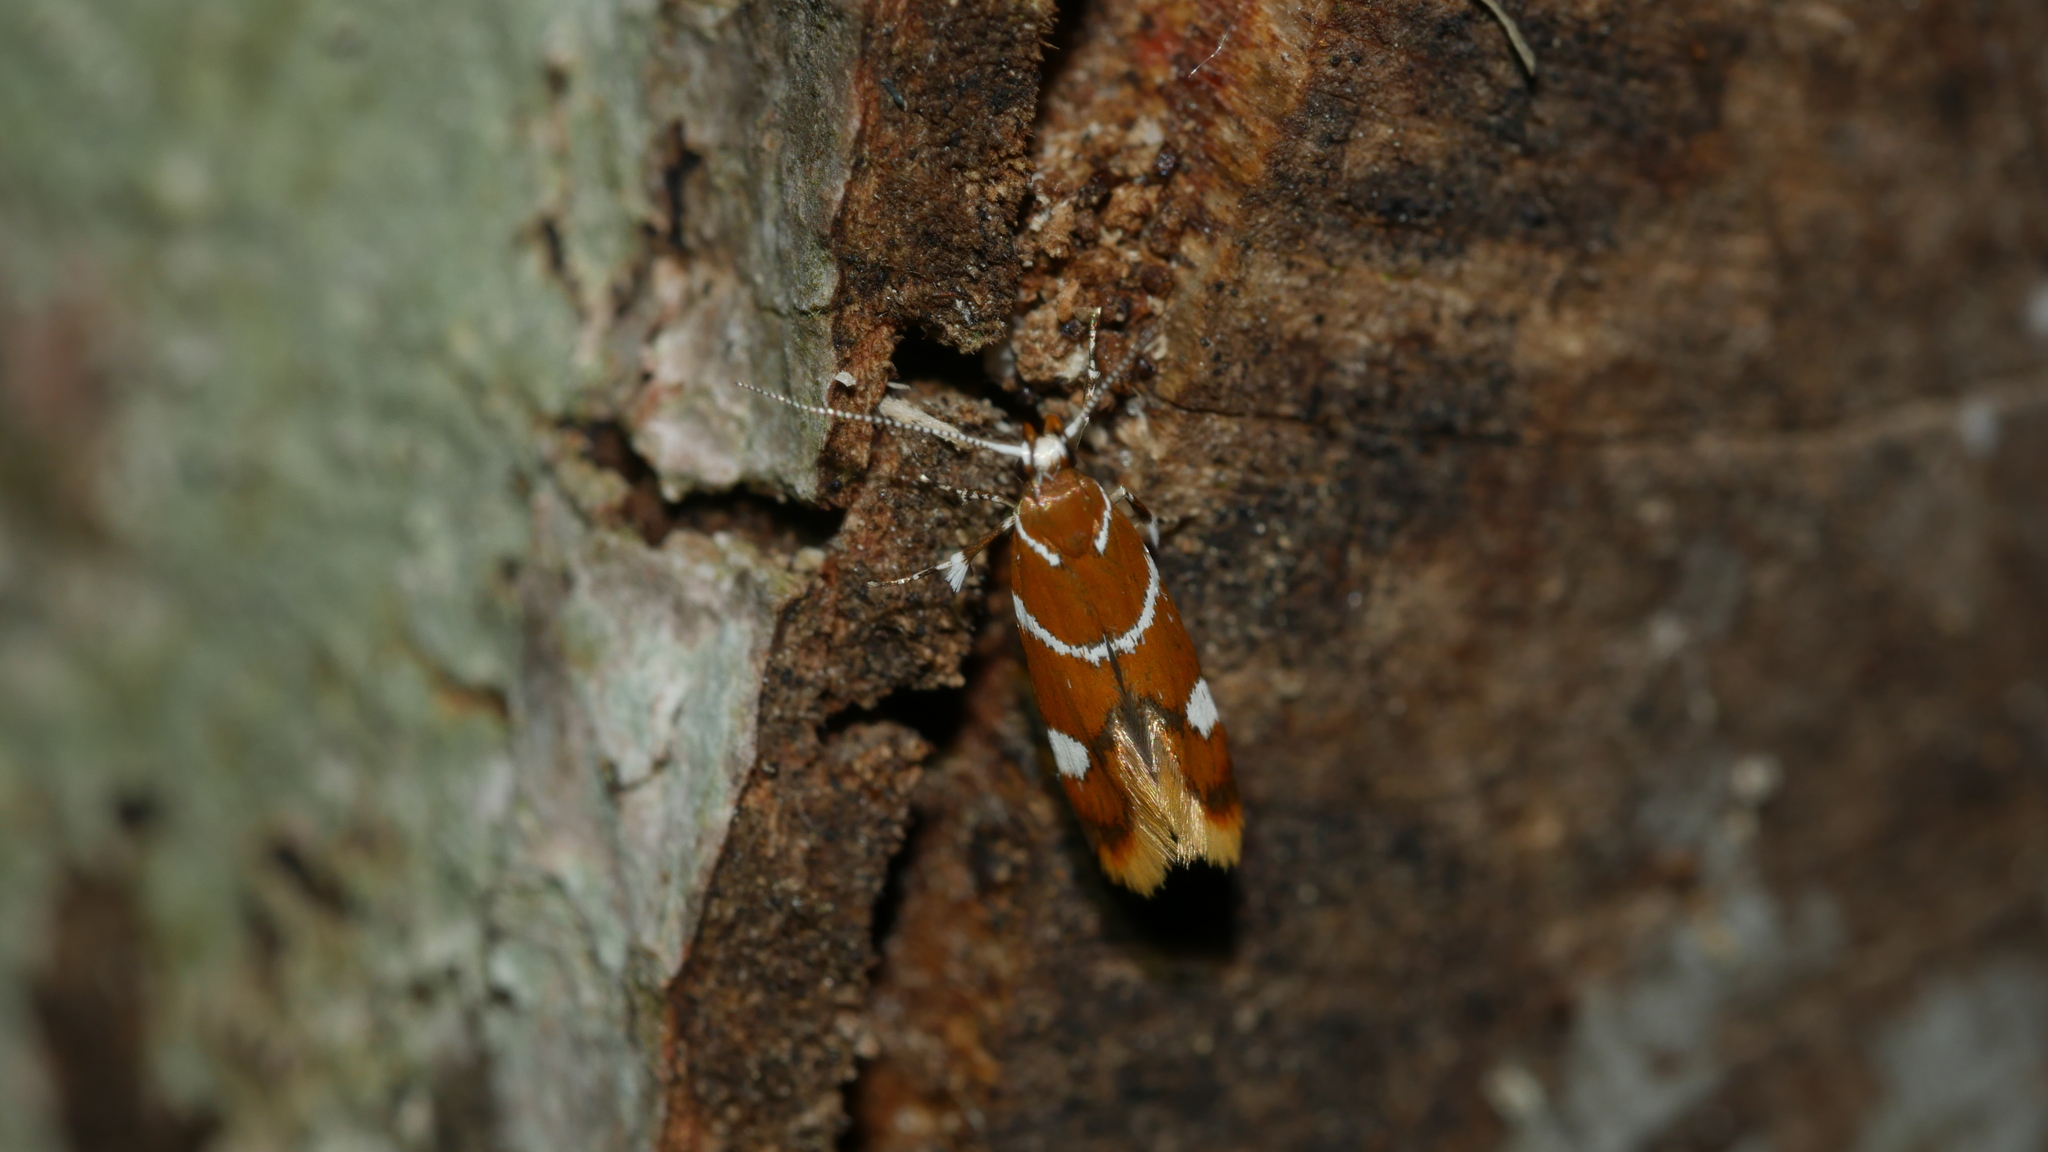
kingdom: Animalia
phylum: Arthropoda
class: Insecta
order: Lepidoptera
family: Oecophoridae
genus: Promalactis
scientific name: Promalactis suzukiella
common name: Moth
